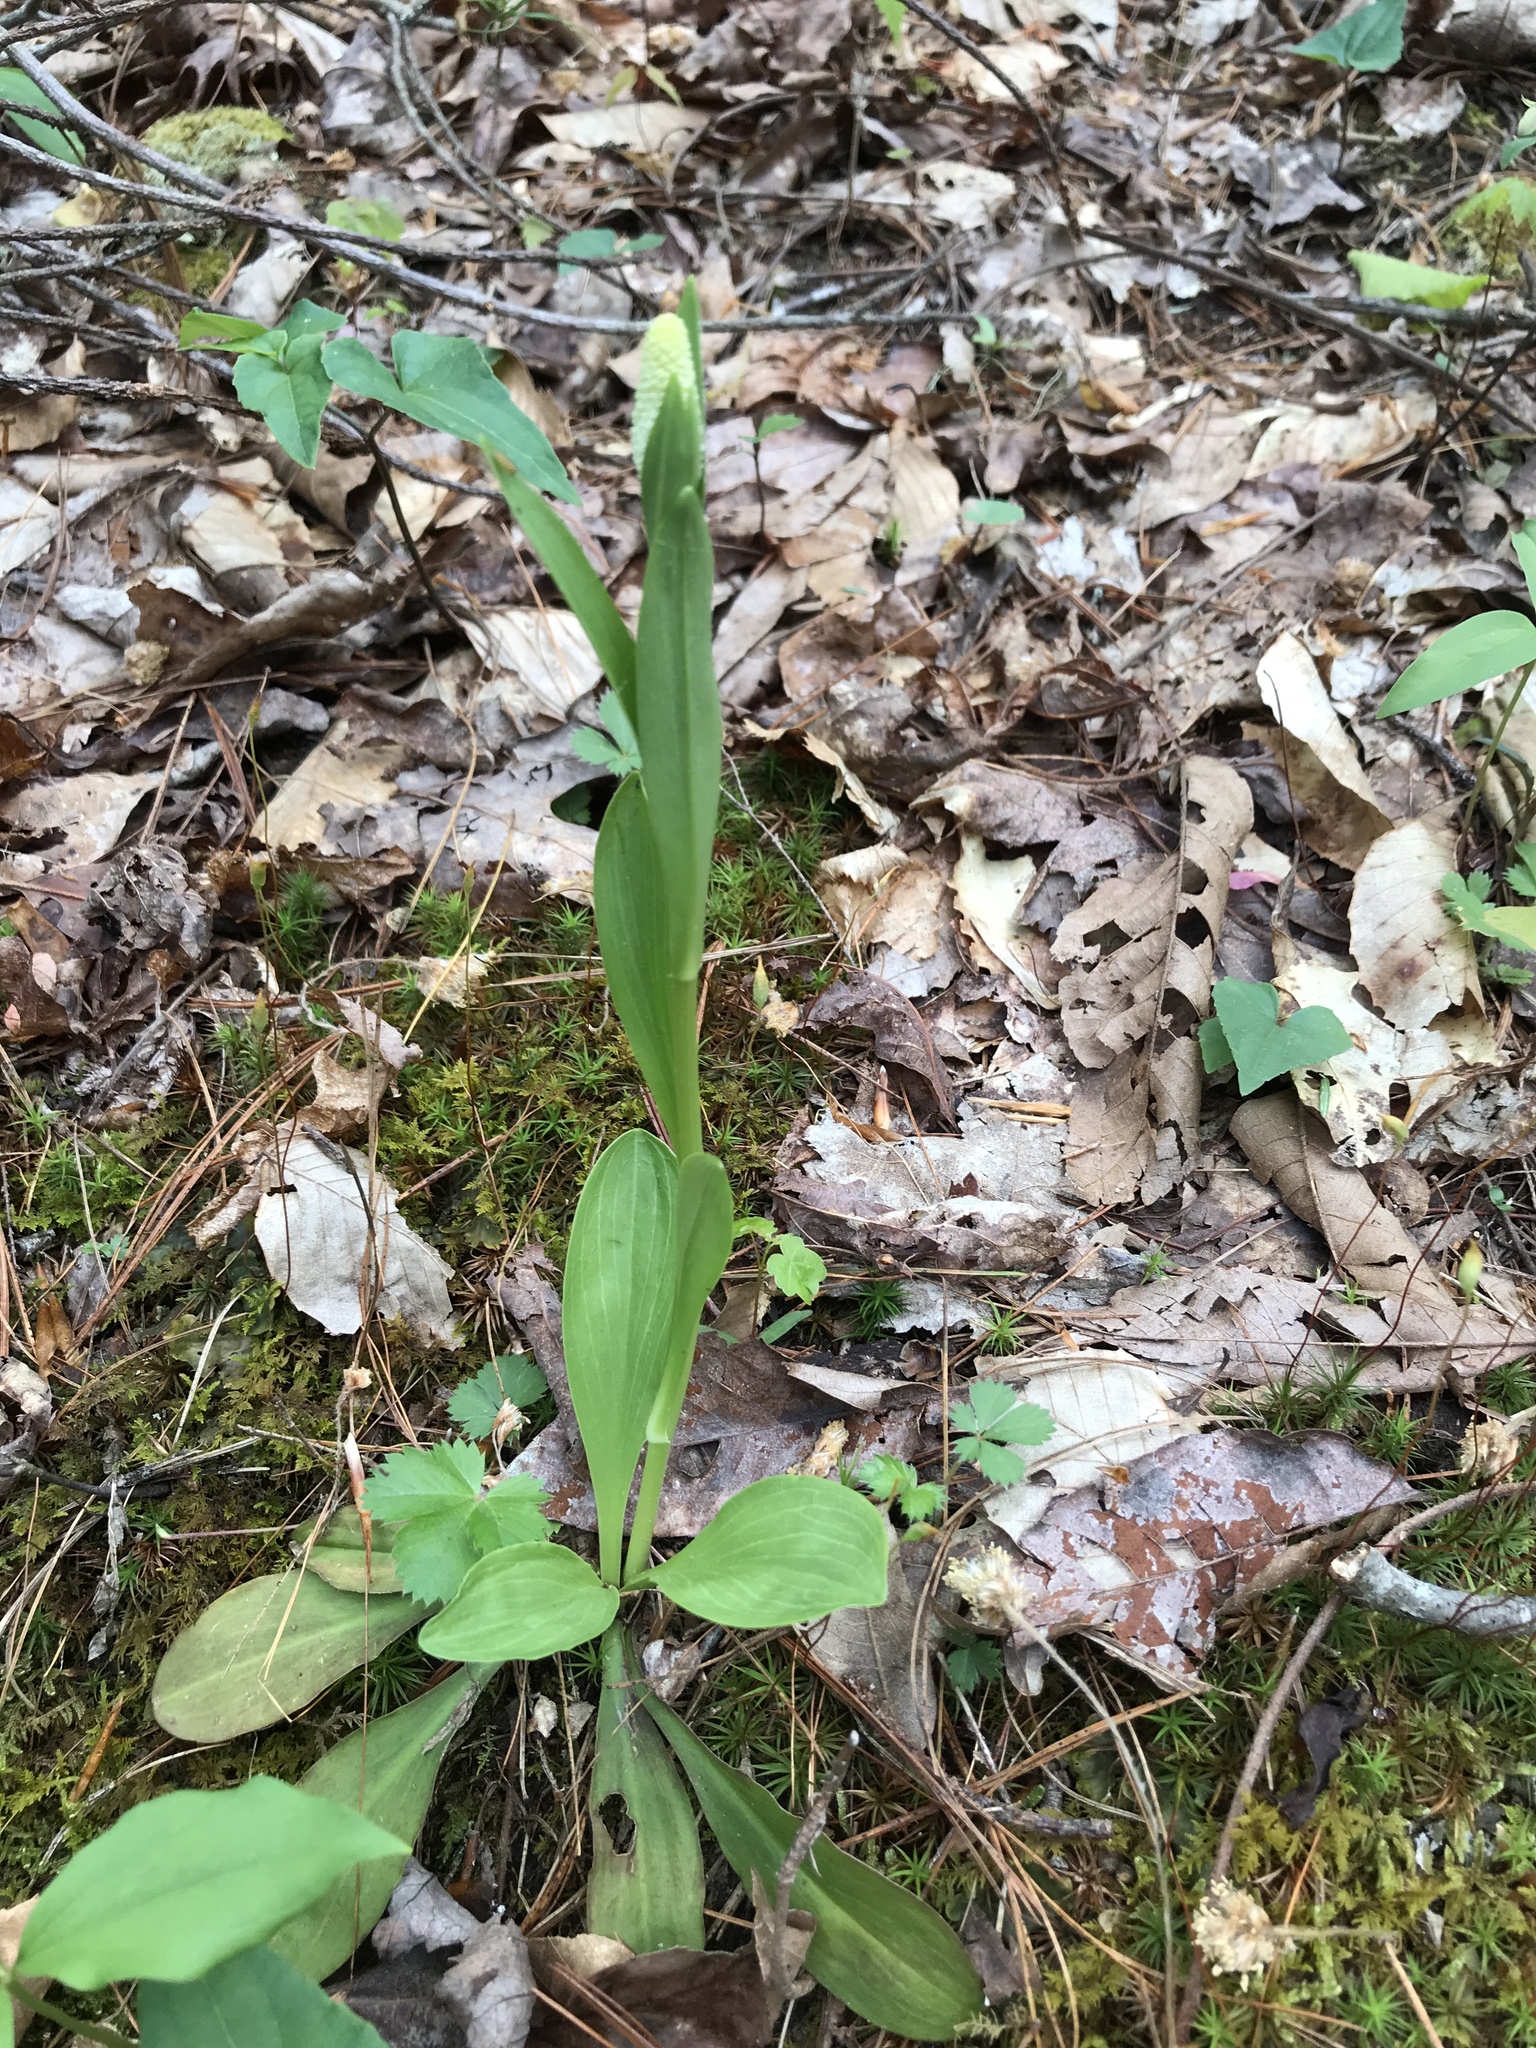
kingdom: Plantae
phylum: Tracheophyta
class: Liliopsida
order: Liliales
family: Melanthiaceae
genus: Chamaelirium
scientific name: Chamaelirium luteum
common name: Fairy-wand
